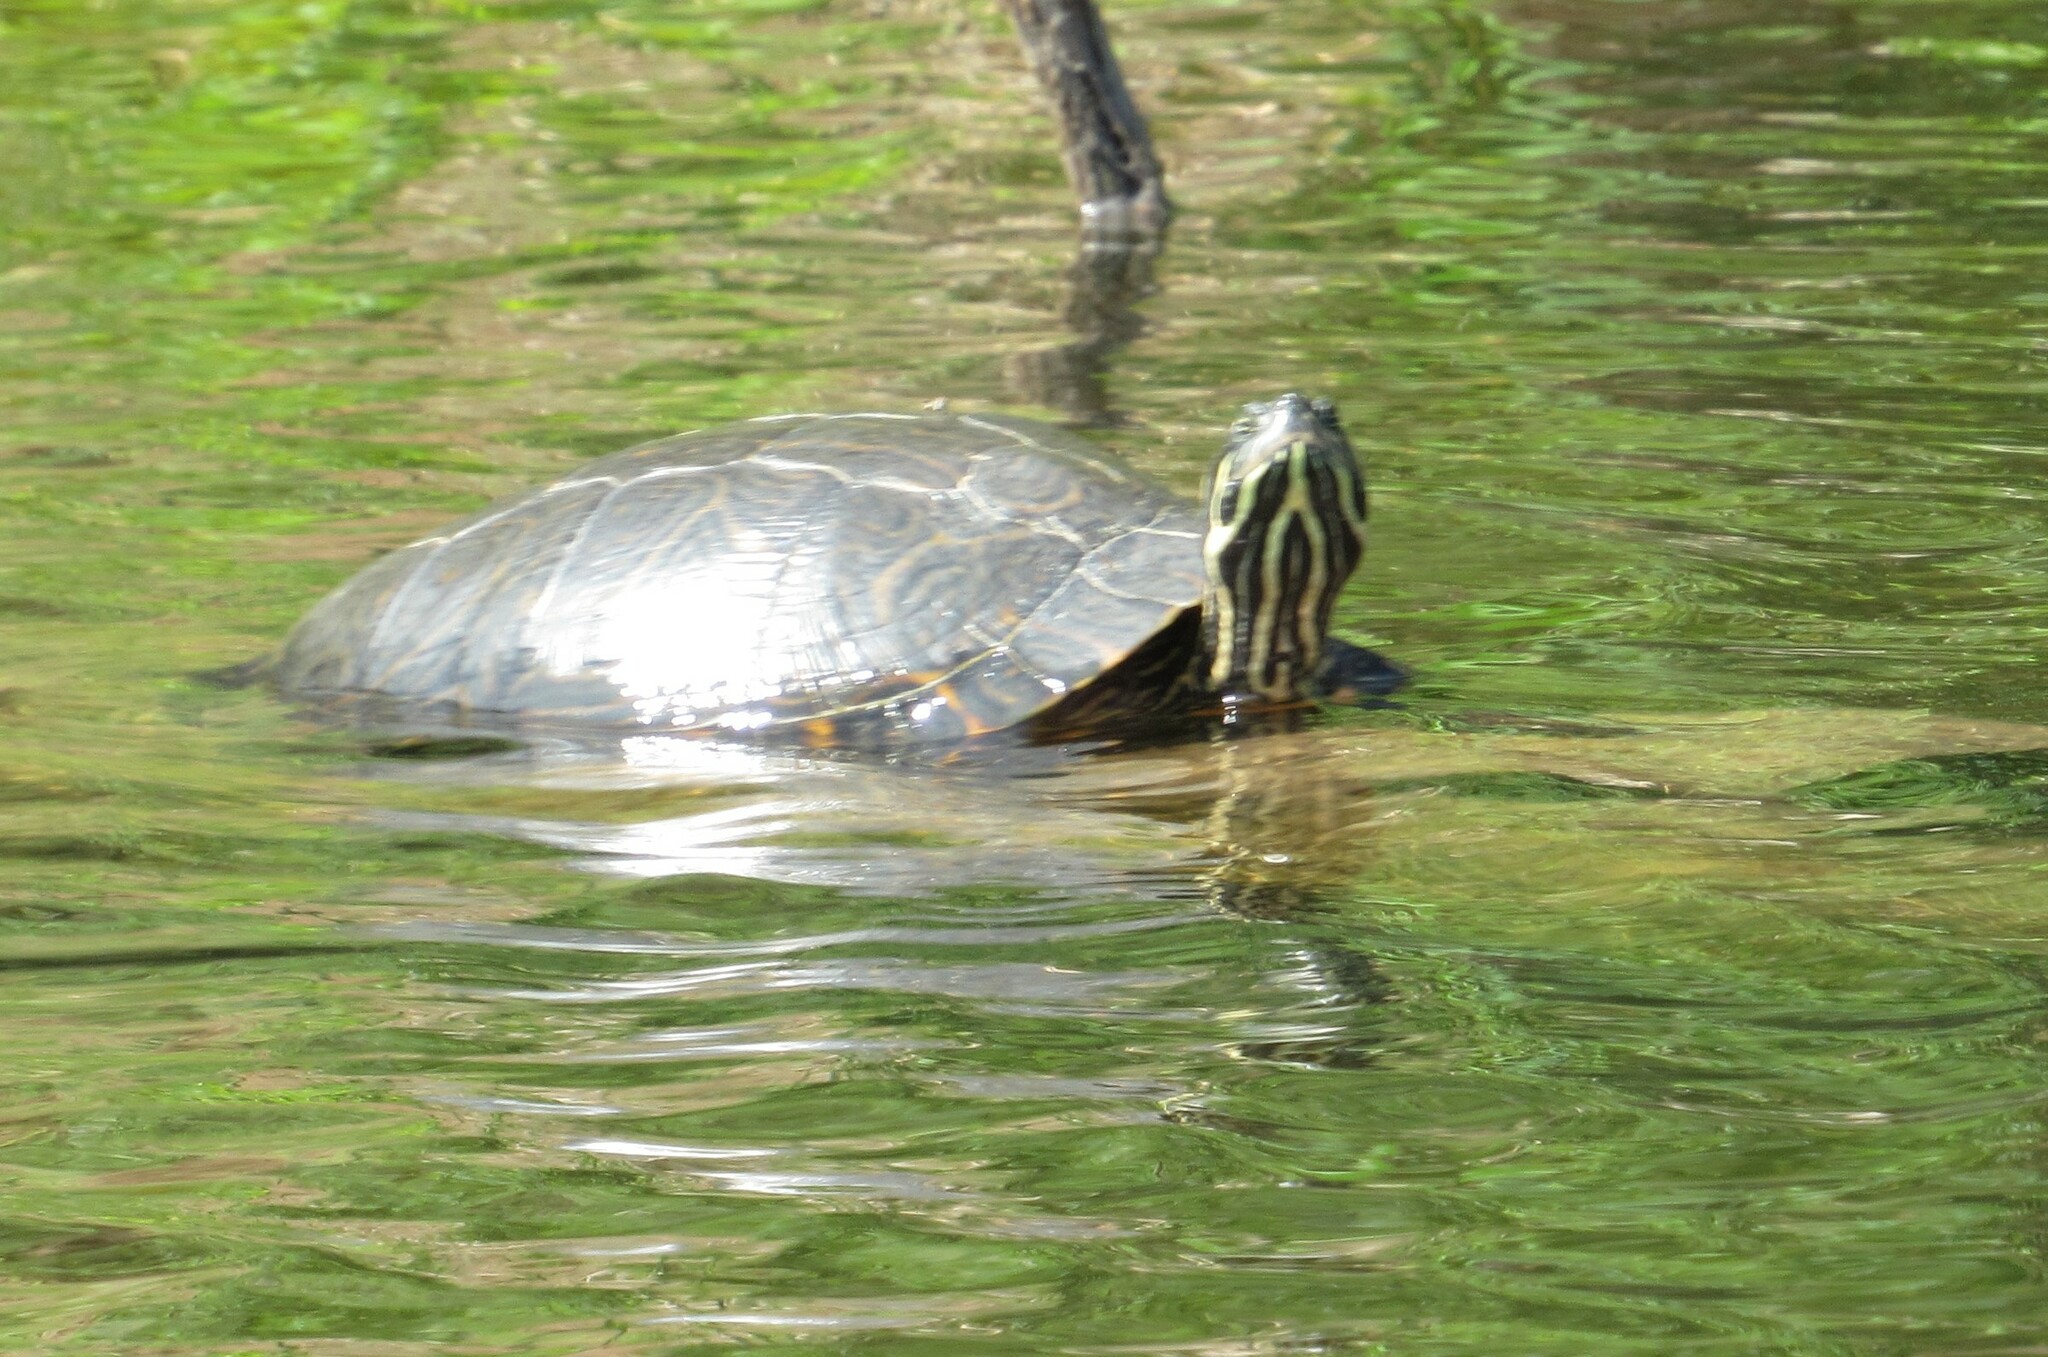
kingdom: Animalia
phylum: Chordata
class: Testudines
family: Emydidae
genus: Pseudemys
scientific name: Pseudemys concinna
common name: Eastern river cooter
